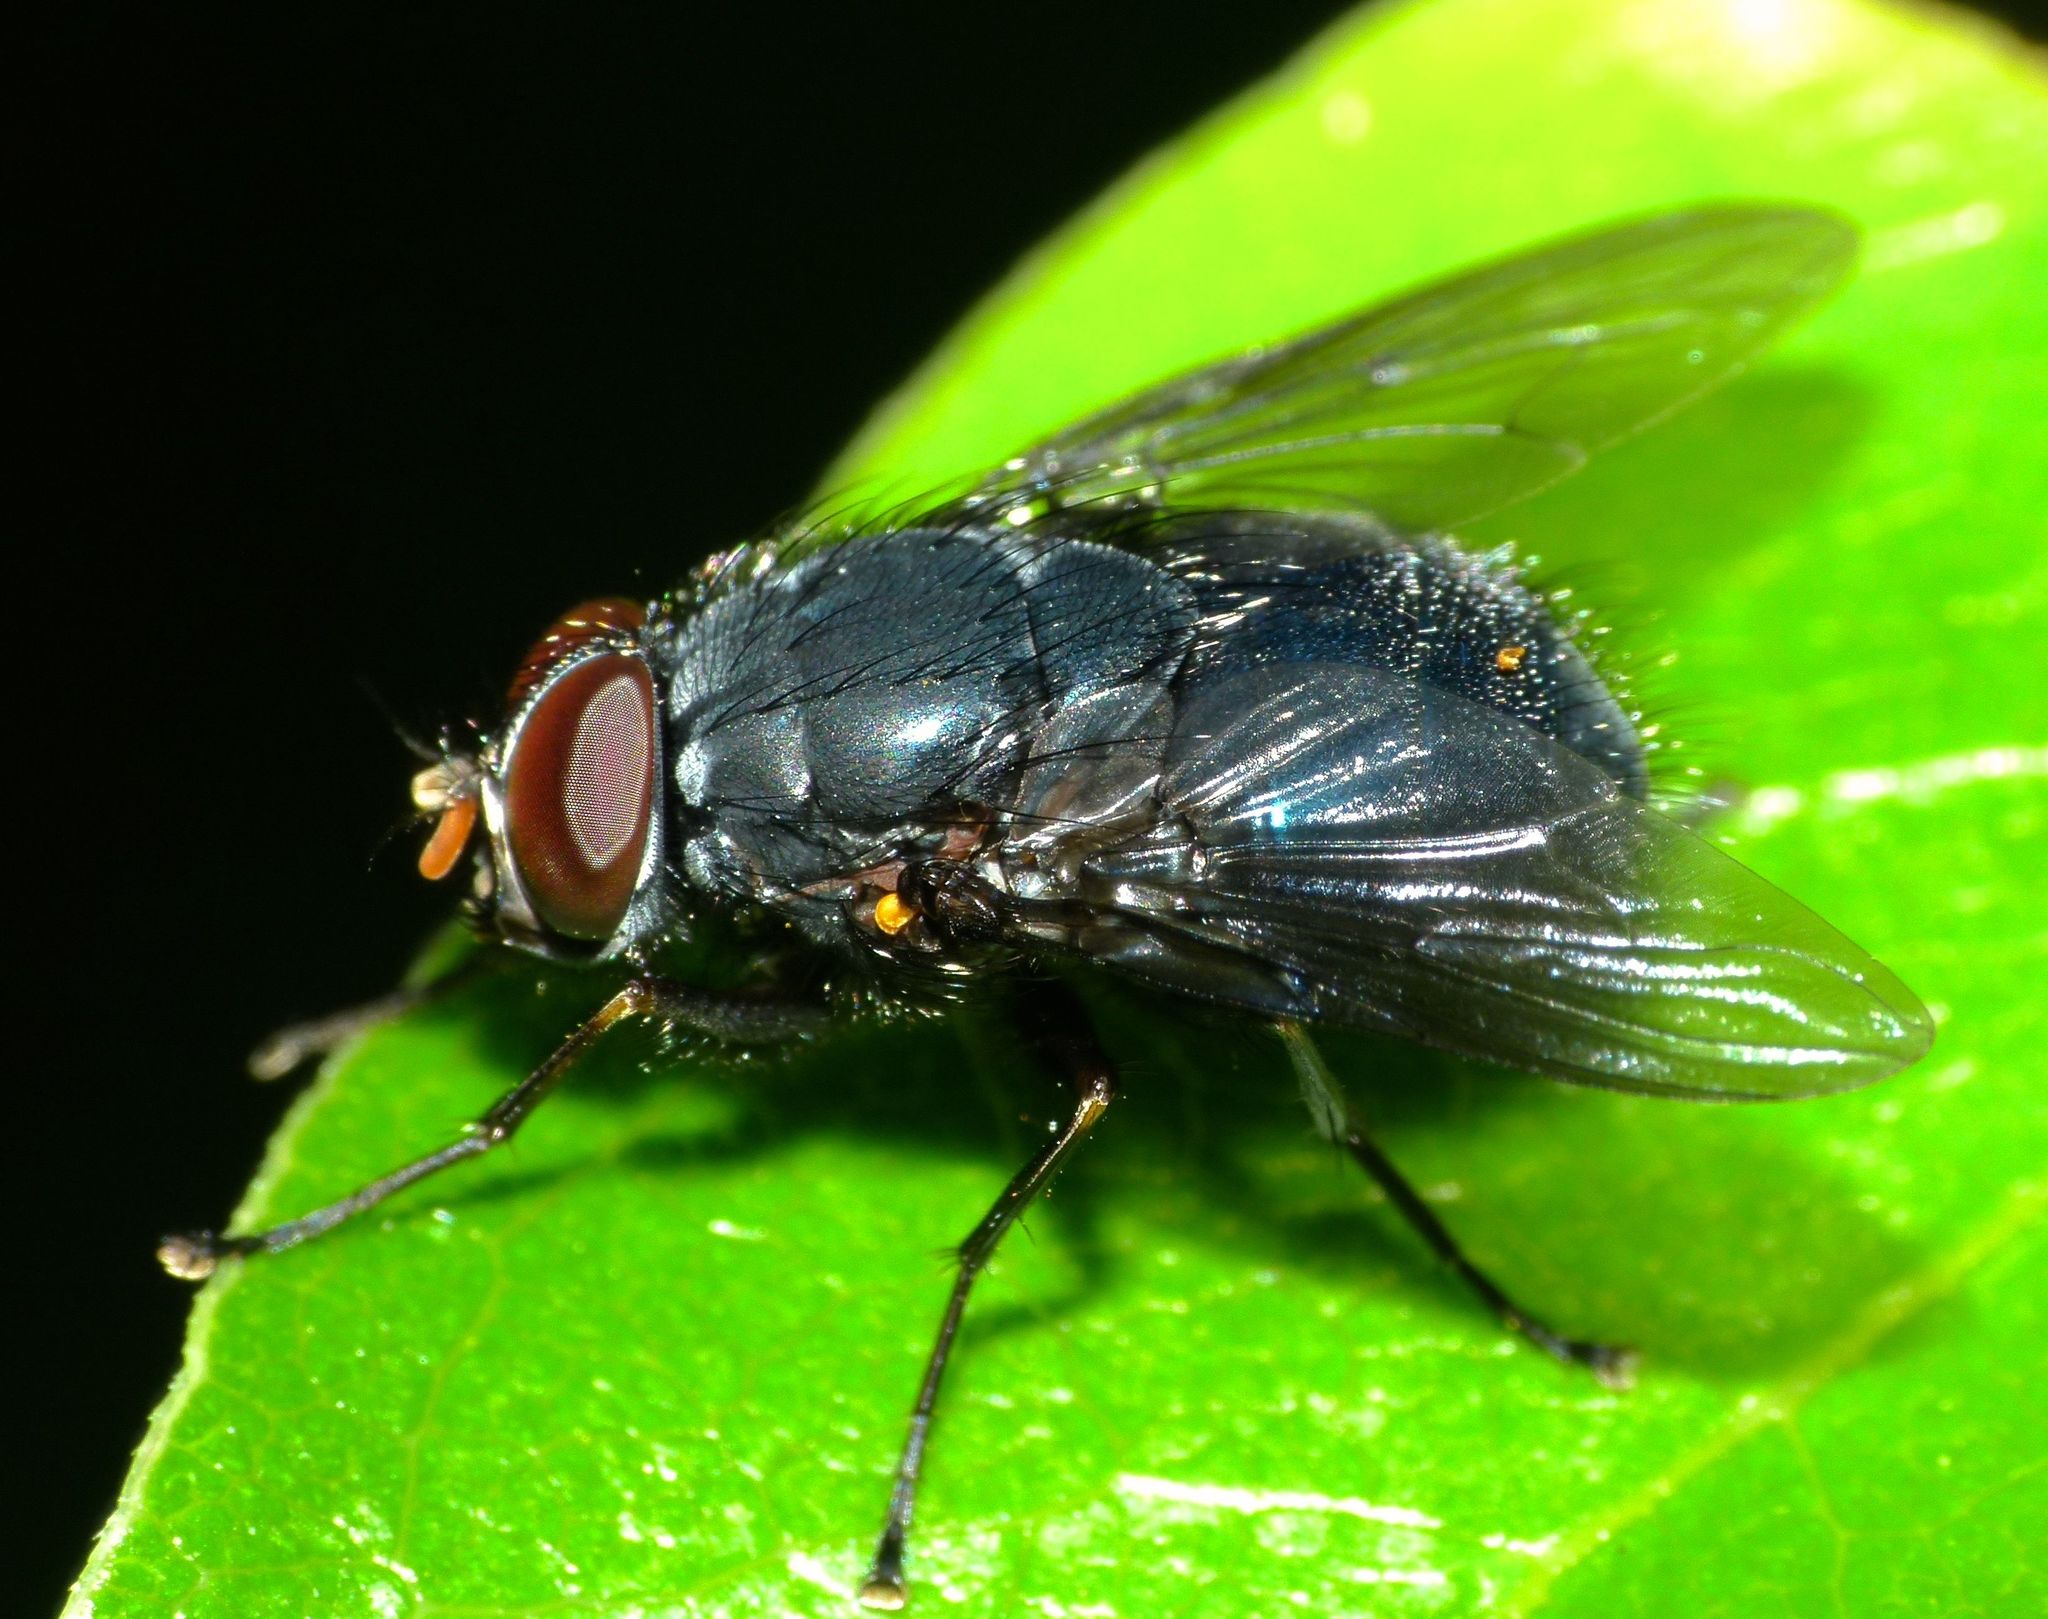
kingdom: Animalia
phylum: Arthropoda
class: Insecta
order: Diptera
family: Muscidae
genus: Calliphoroides
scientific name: Calliphoroides antennatis
